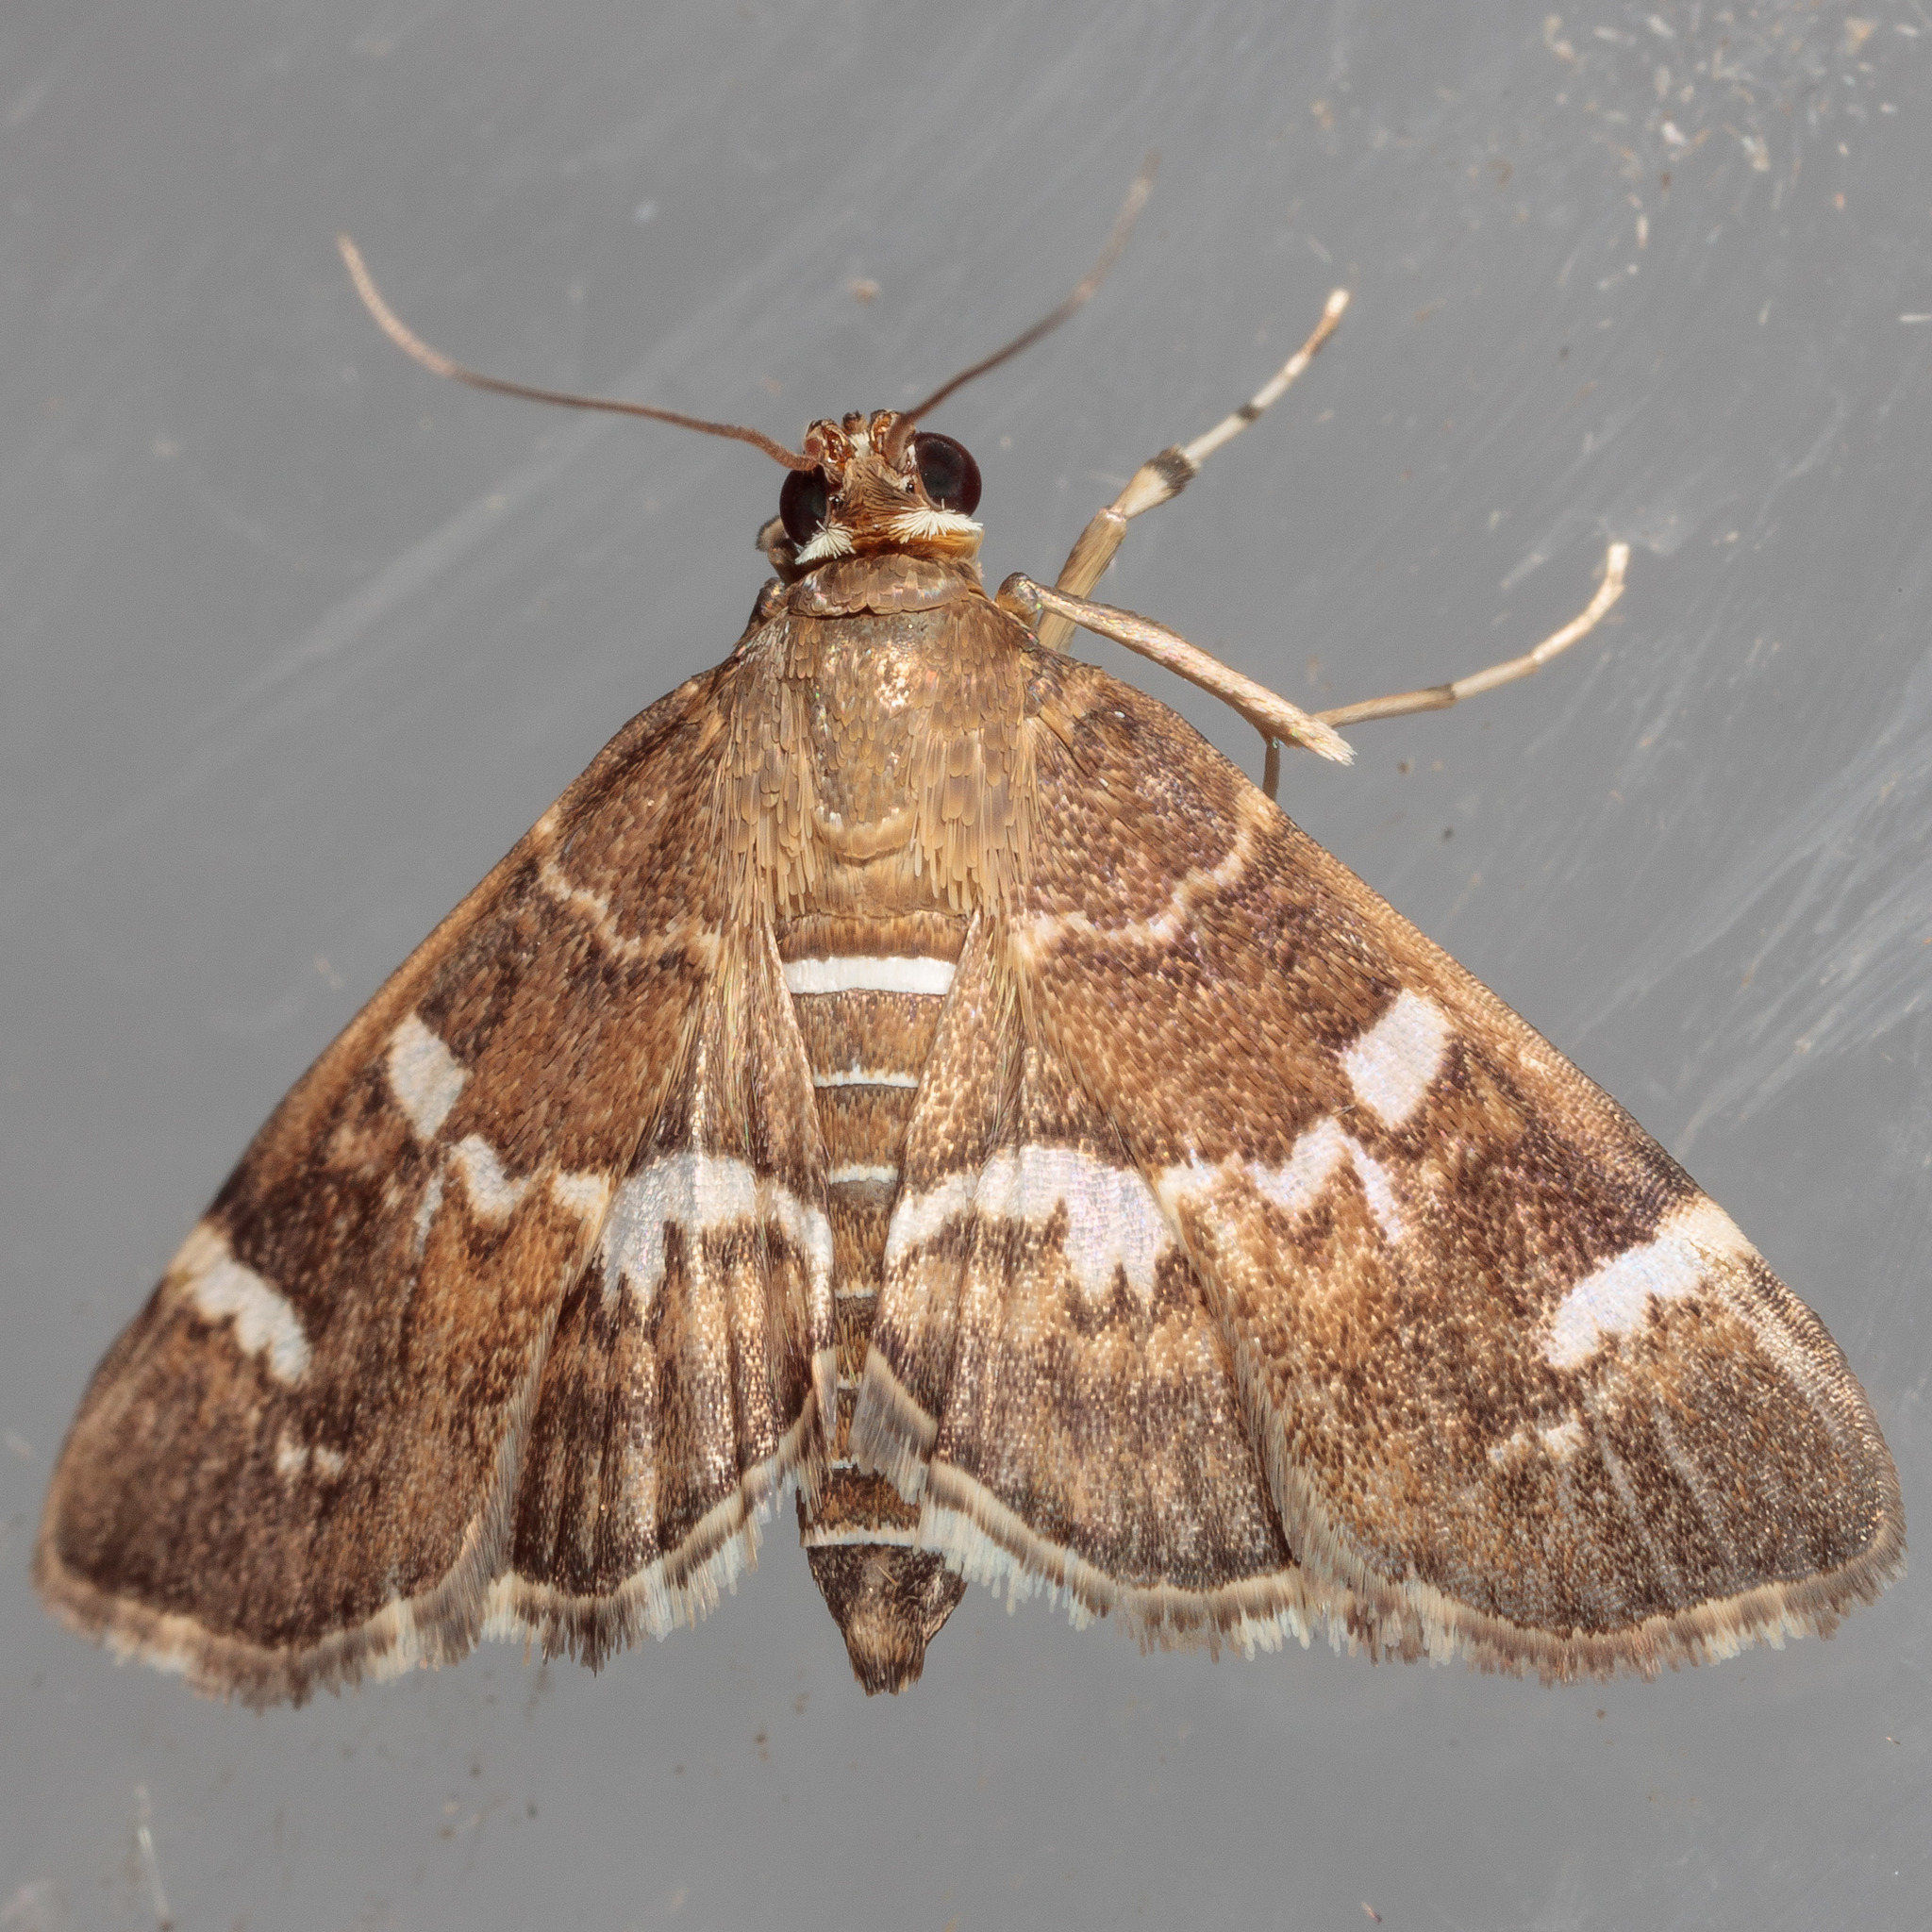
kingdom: Animalia
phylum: Arthropoda
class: Insecta
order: Lepidoptera
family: Crambidae
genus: Hymenia
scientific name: Hymenia perspectalis
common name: Spotted beet webworm
